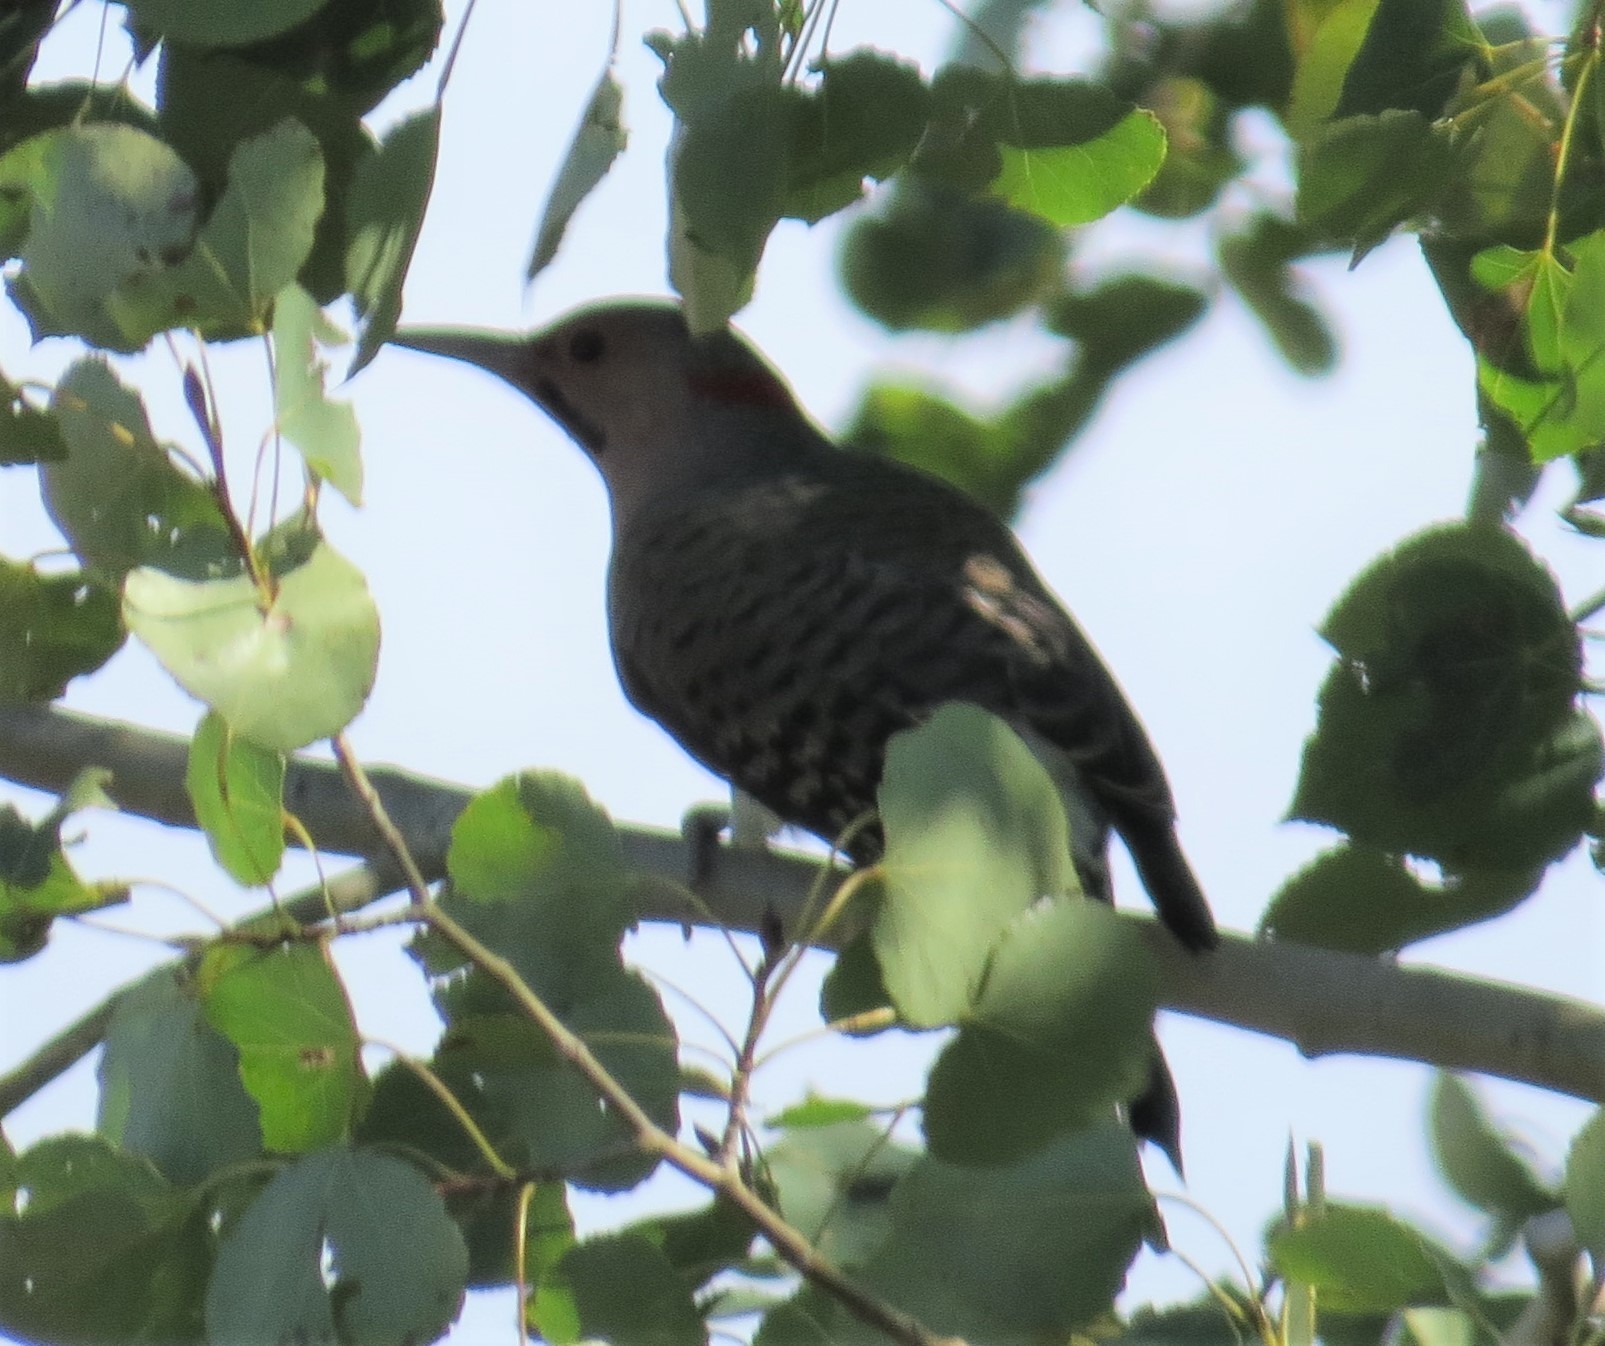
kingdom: Animalia
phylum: Chordata
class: Aves
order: Piciformes
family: Picidae
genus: Colaptes
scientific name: Colaptes auratus
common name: Northern flicker
